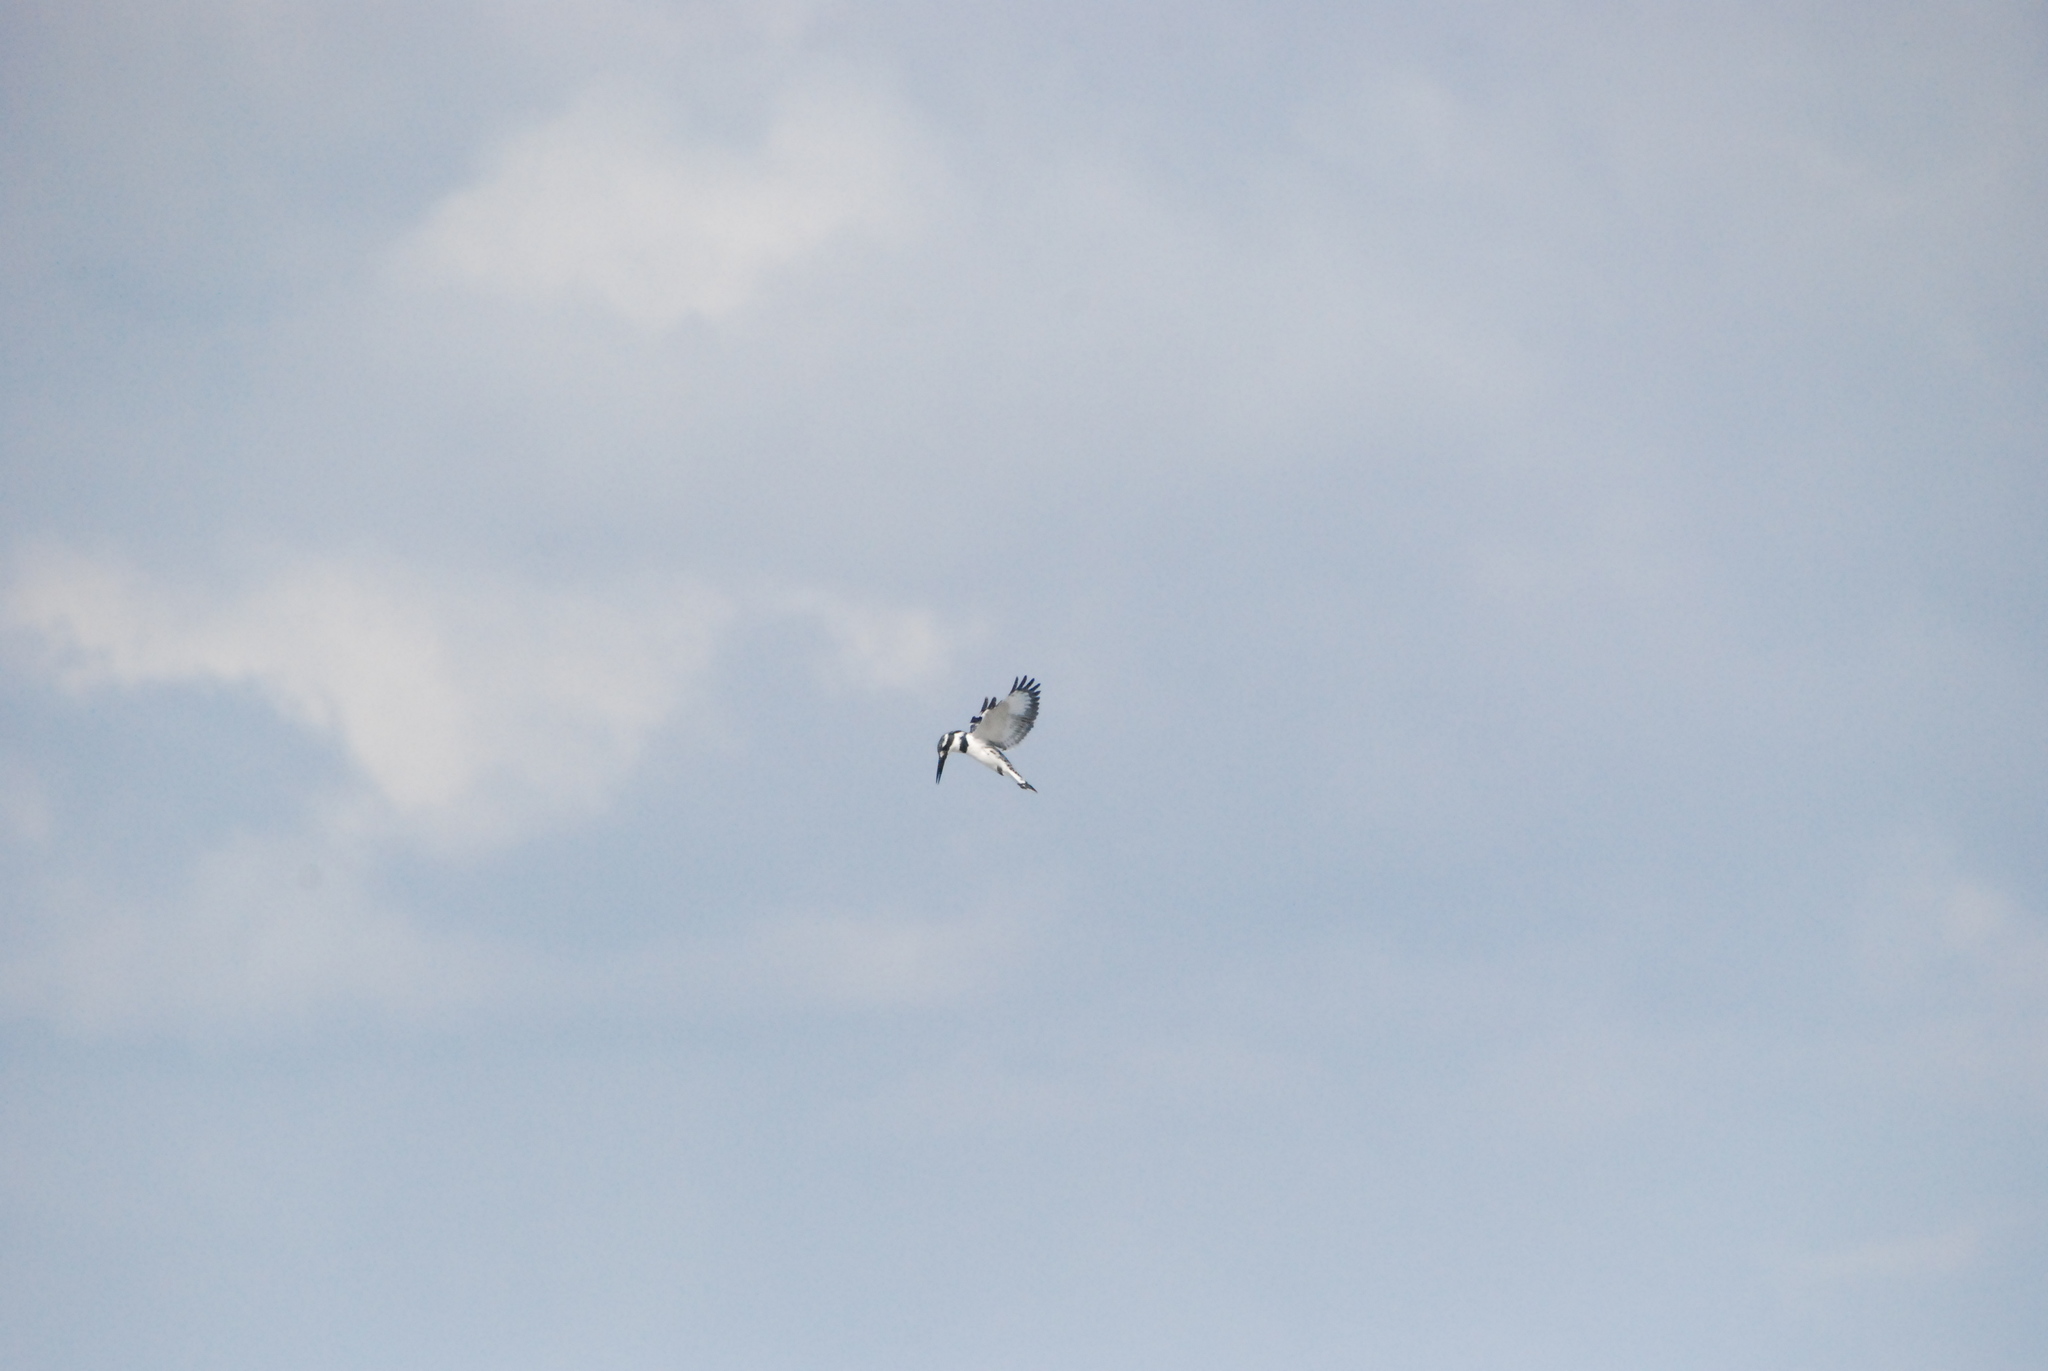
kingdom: Animalia
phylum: Chordata
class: Aves
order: Coraciiformes
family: Alcedinidae
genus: Ceryle
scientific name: Ceryle rudis
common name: Pied kingfisher
